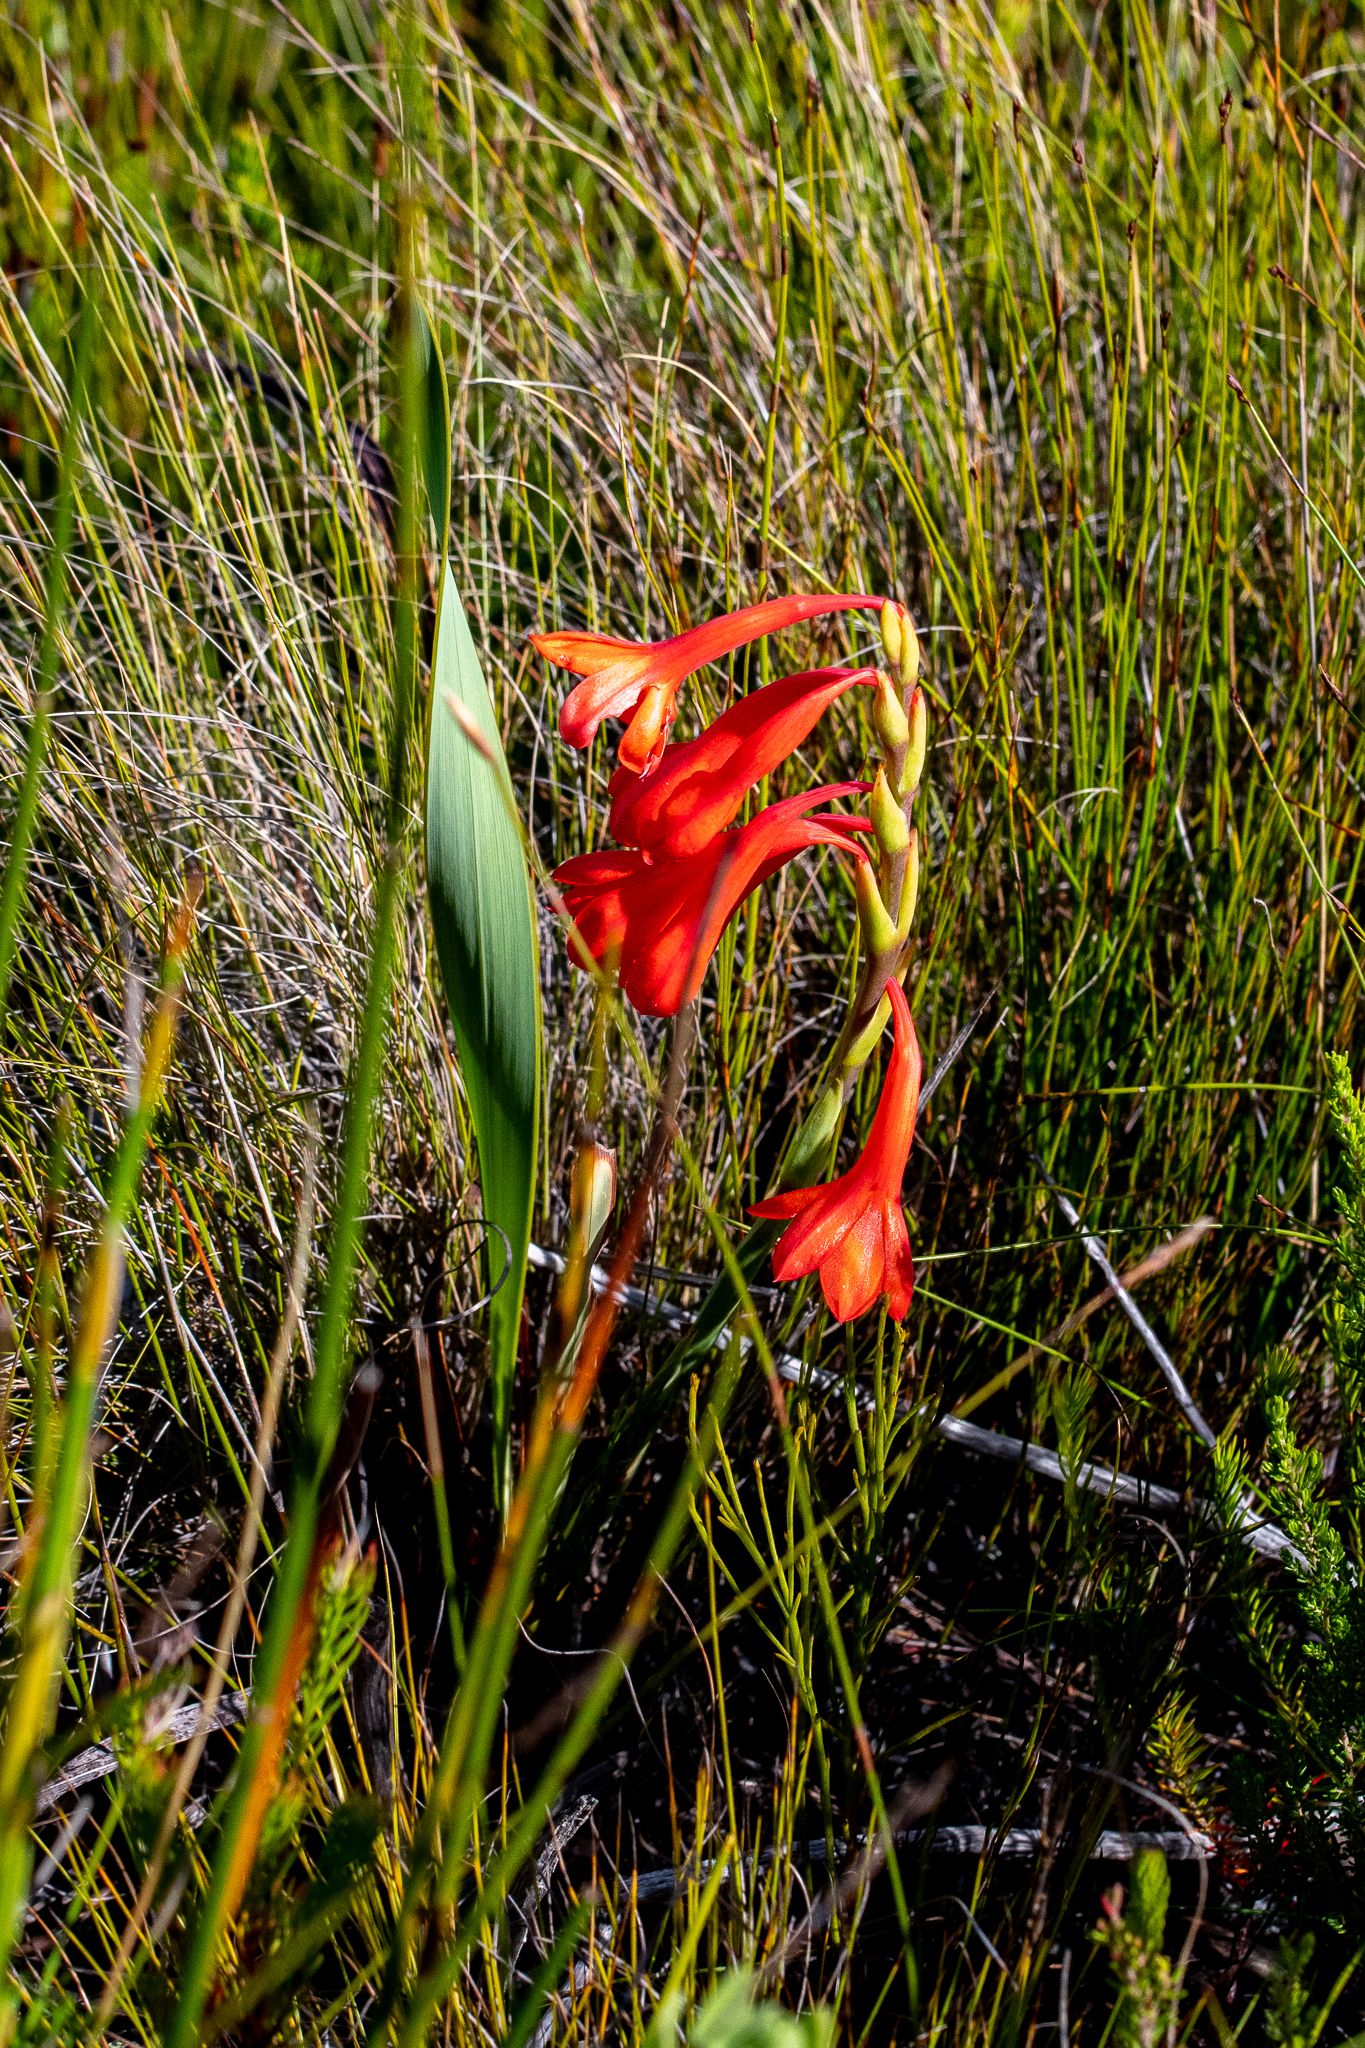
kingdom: Plantae
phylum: Tracheophyta
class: Liliopsida
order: Asparagales
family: Iridaceae
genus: Watsonia
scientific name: Watsonia schlechteri
